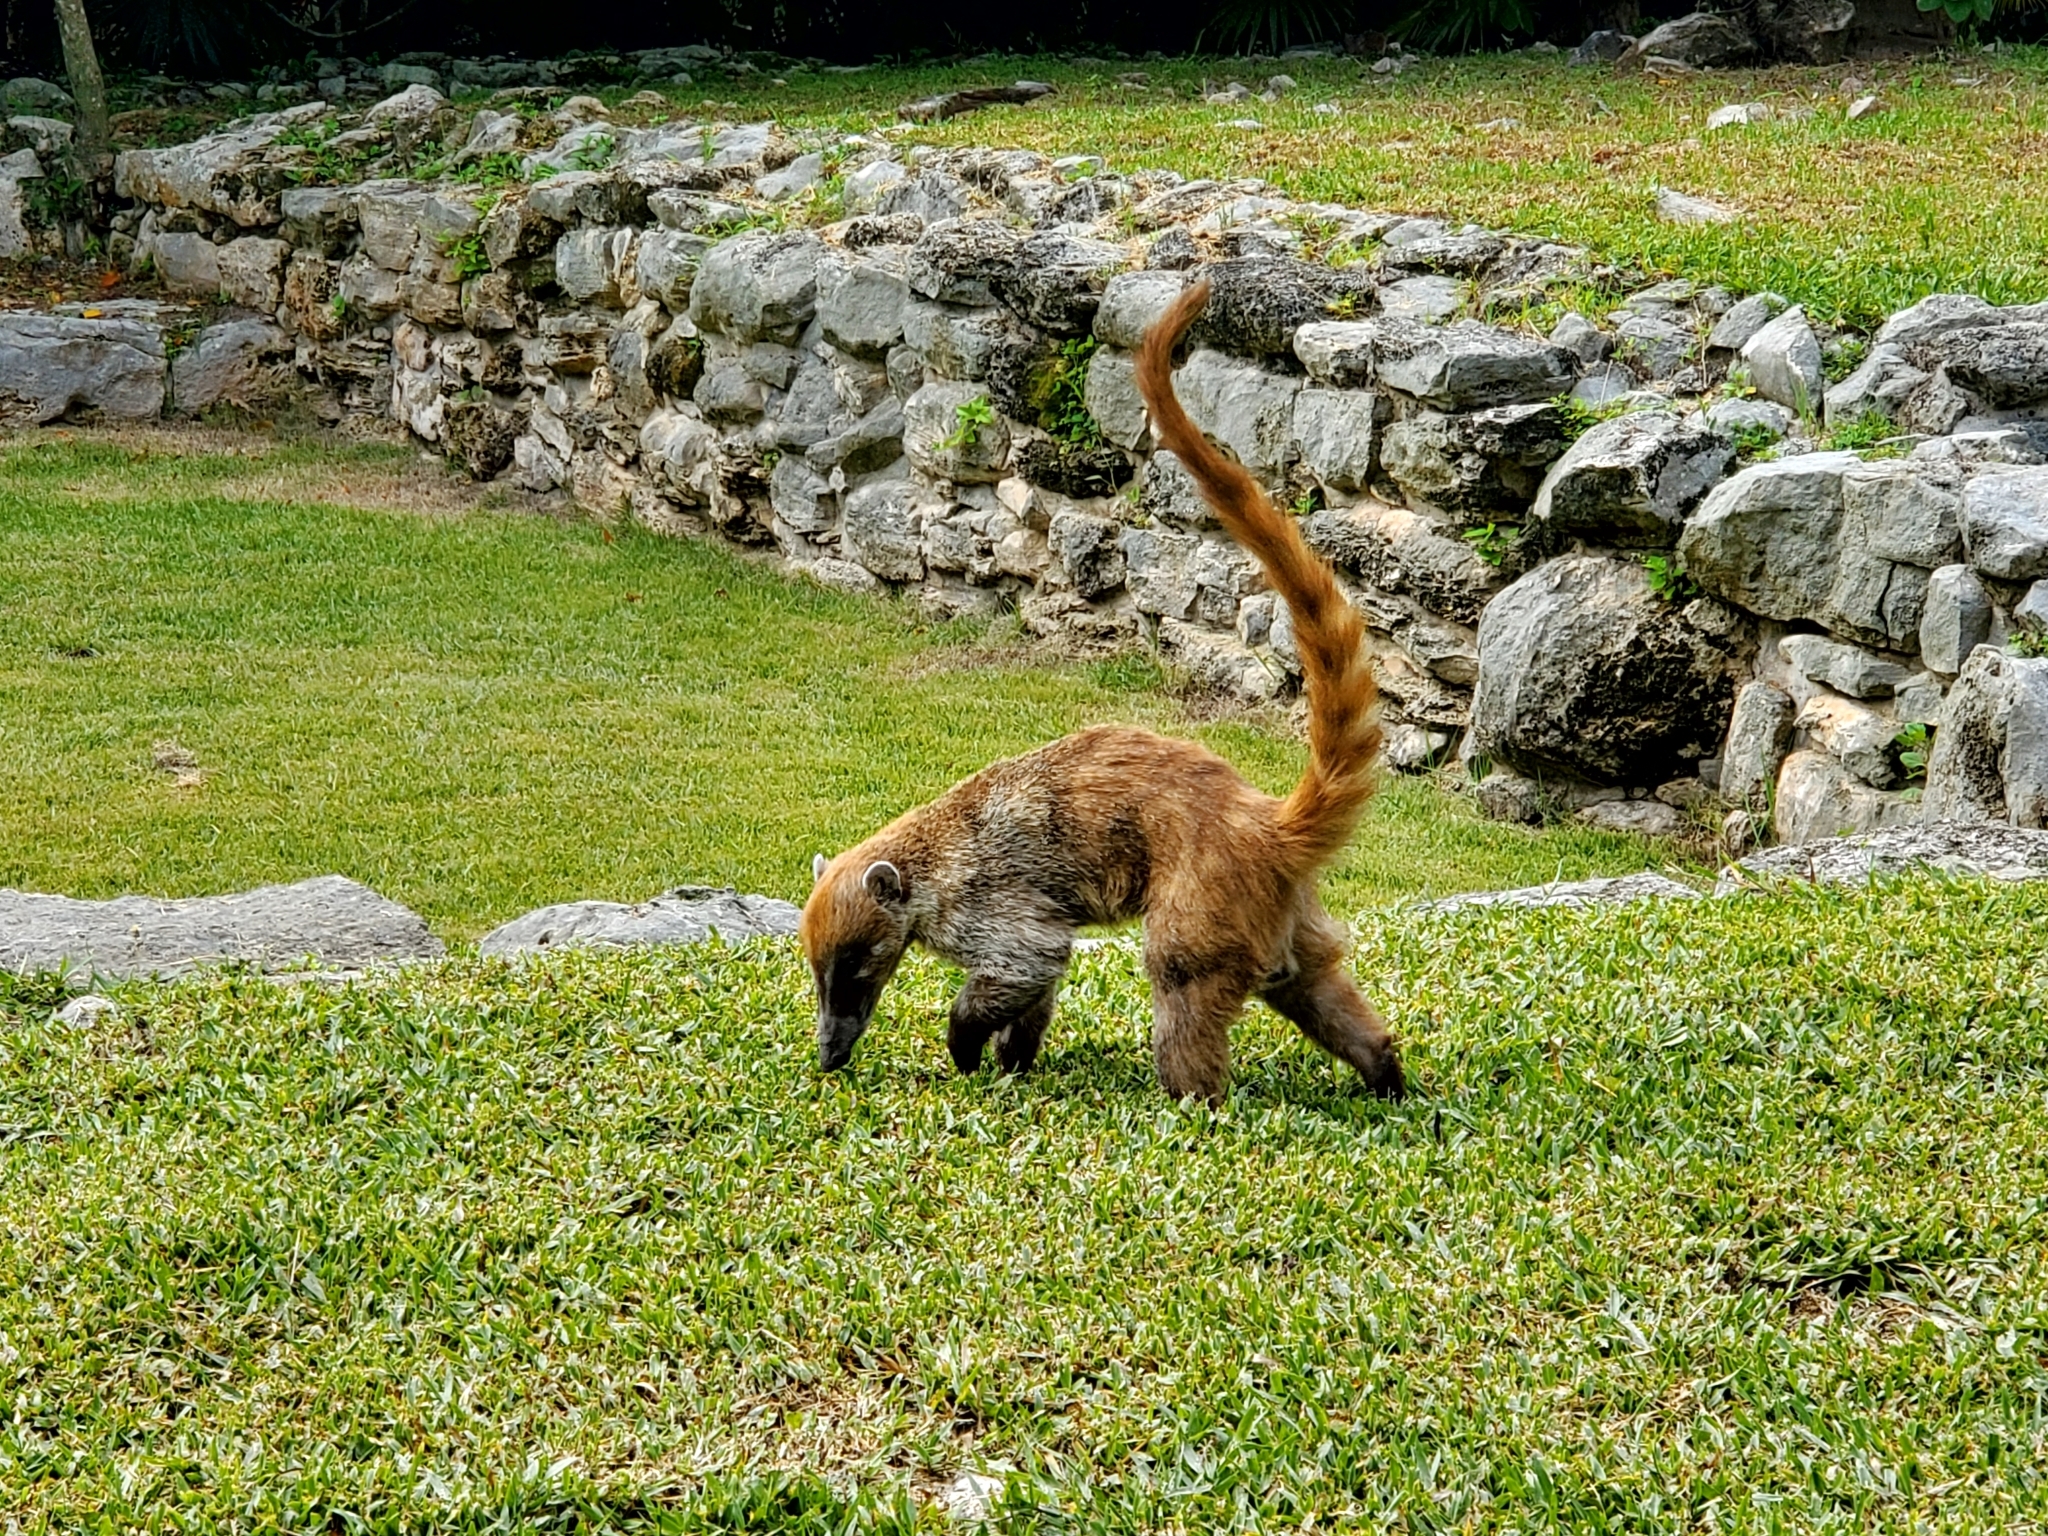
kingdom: Animalia
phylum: Chordata
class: Mammalia
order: Carnivora
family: Procyonidae
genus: Nasua
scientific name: Nasua narica
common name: White-nosed coati
